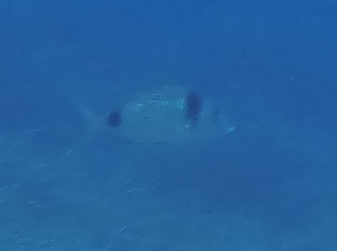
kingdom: Animalia
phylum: Chordata
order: Perciformes
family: Sparidae
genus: Diplodus
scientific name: Diplodus vulgaris
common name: Common two-banded seabream
